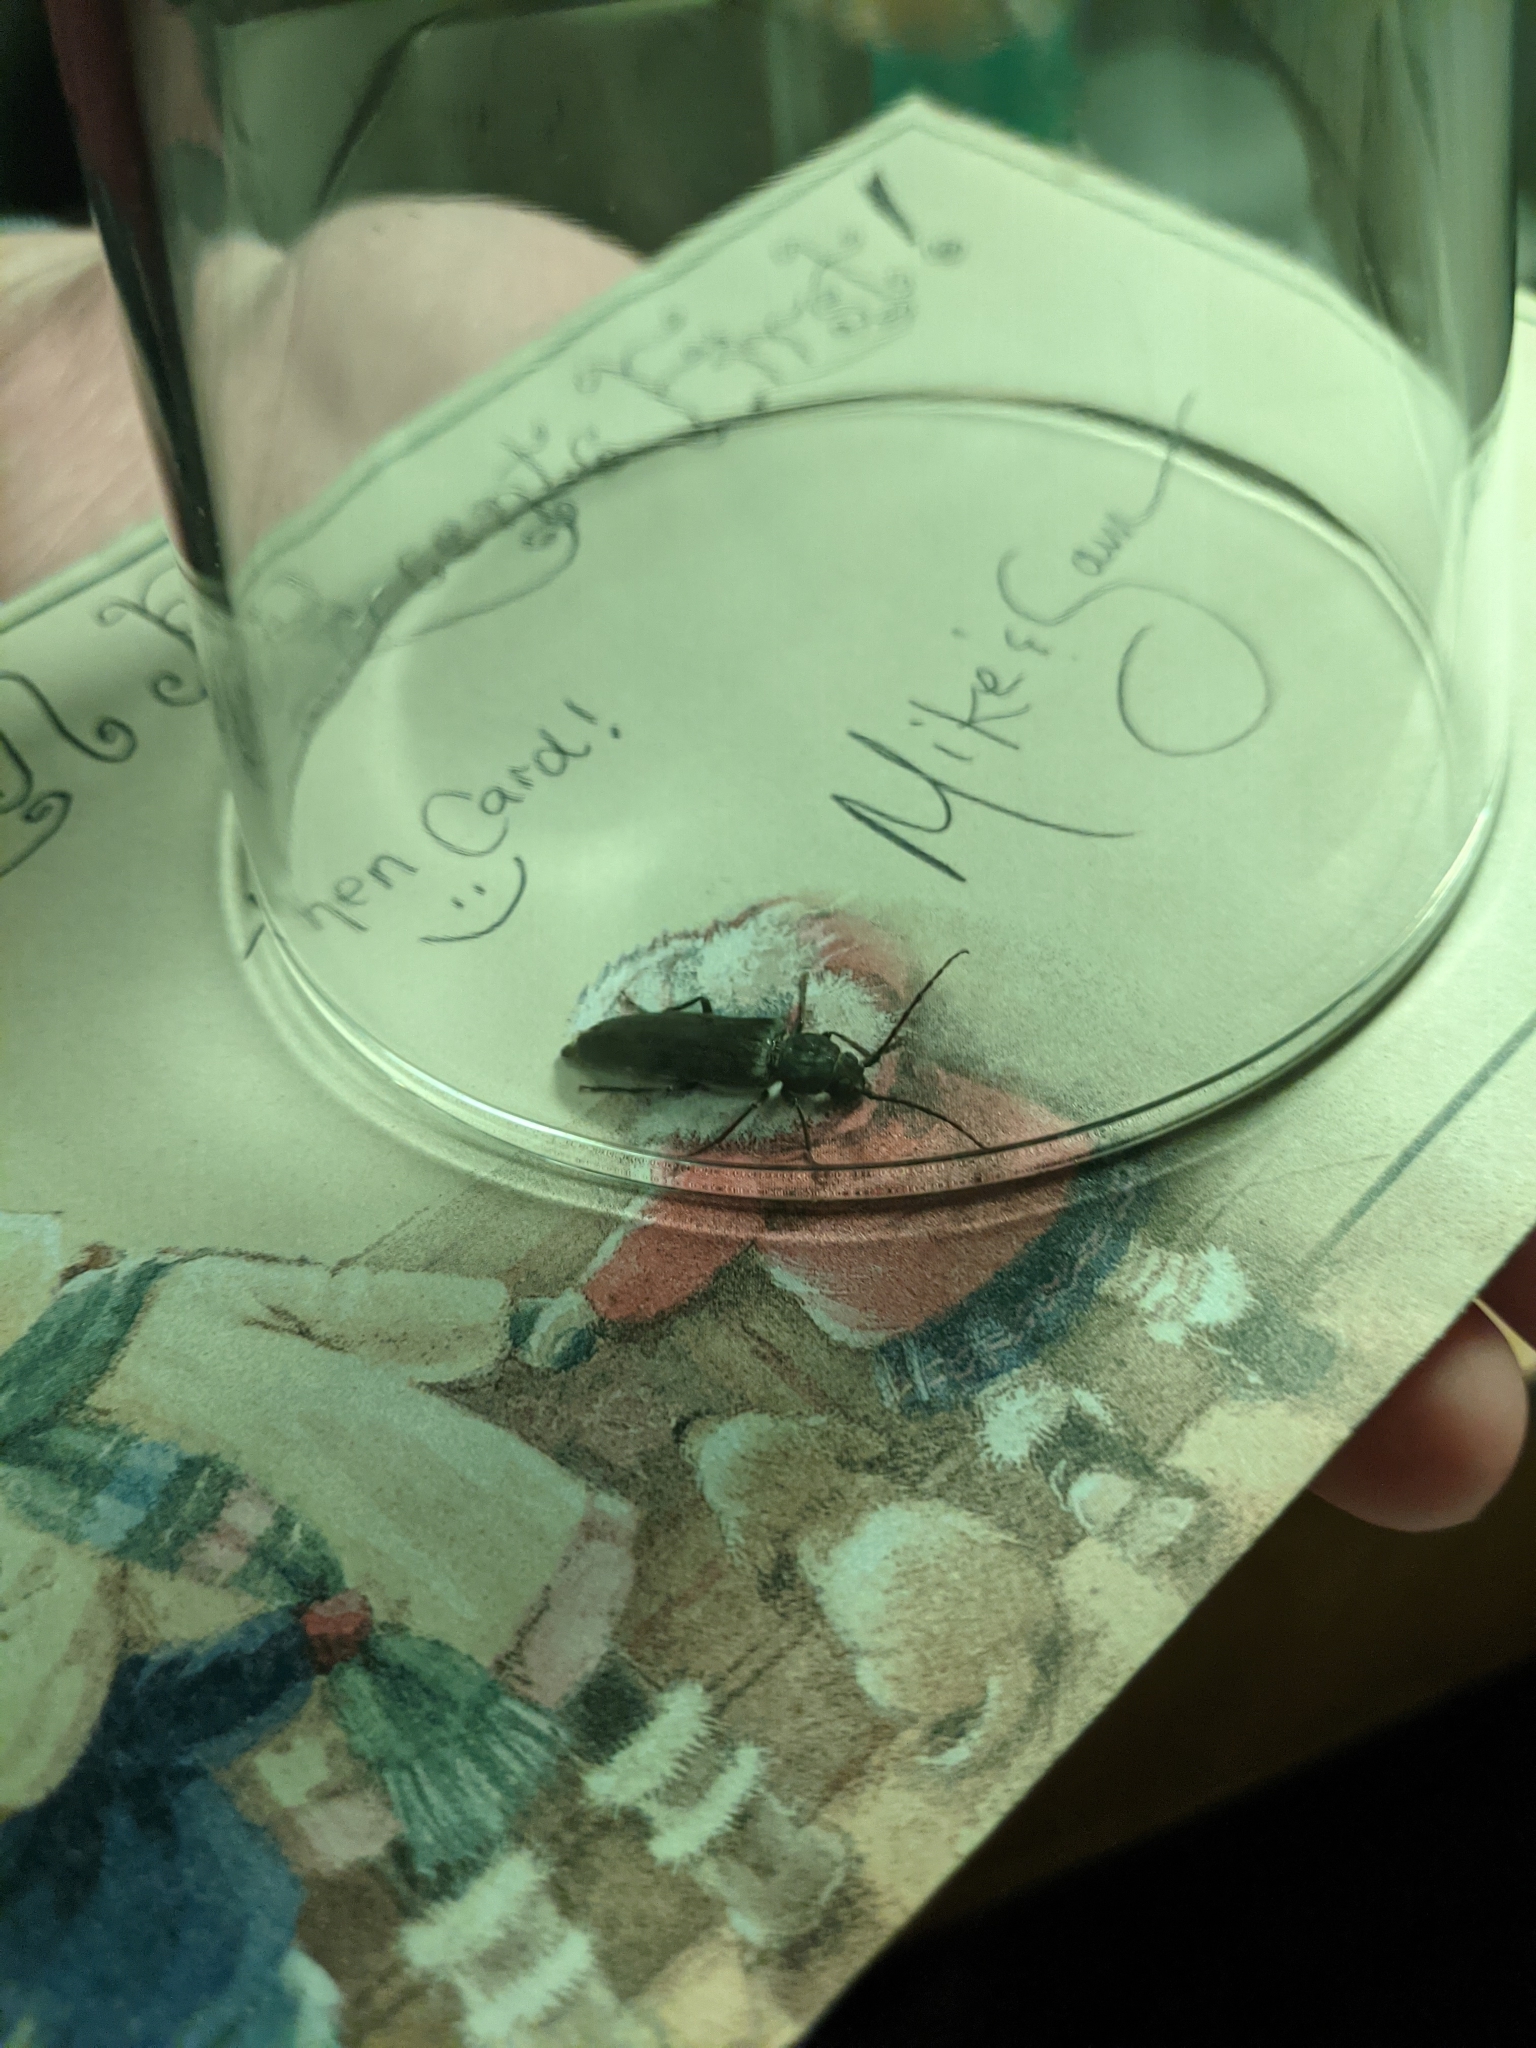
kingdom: Animalia
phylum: Arthropoda
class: Insecta
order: Coleoptera
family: Cerambycidae
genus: Arhopalus
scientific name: Arhopalus ferus
